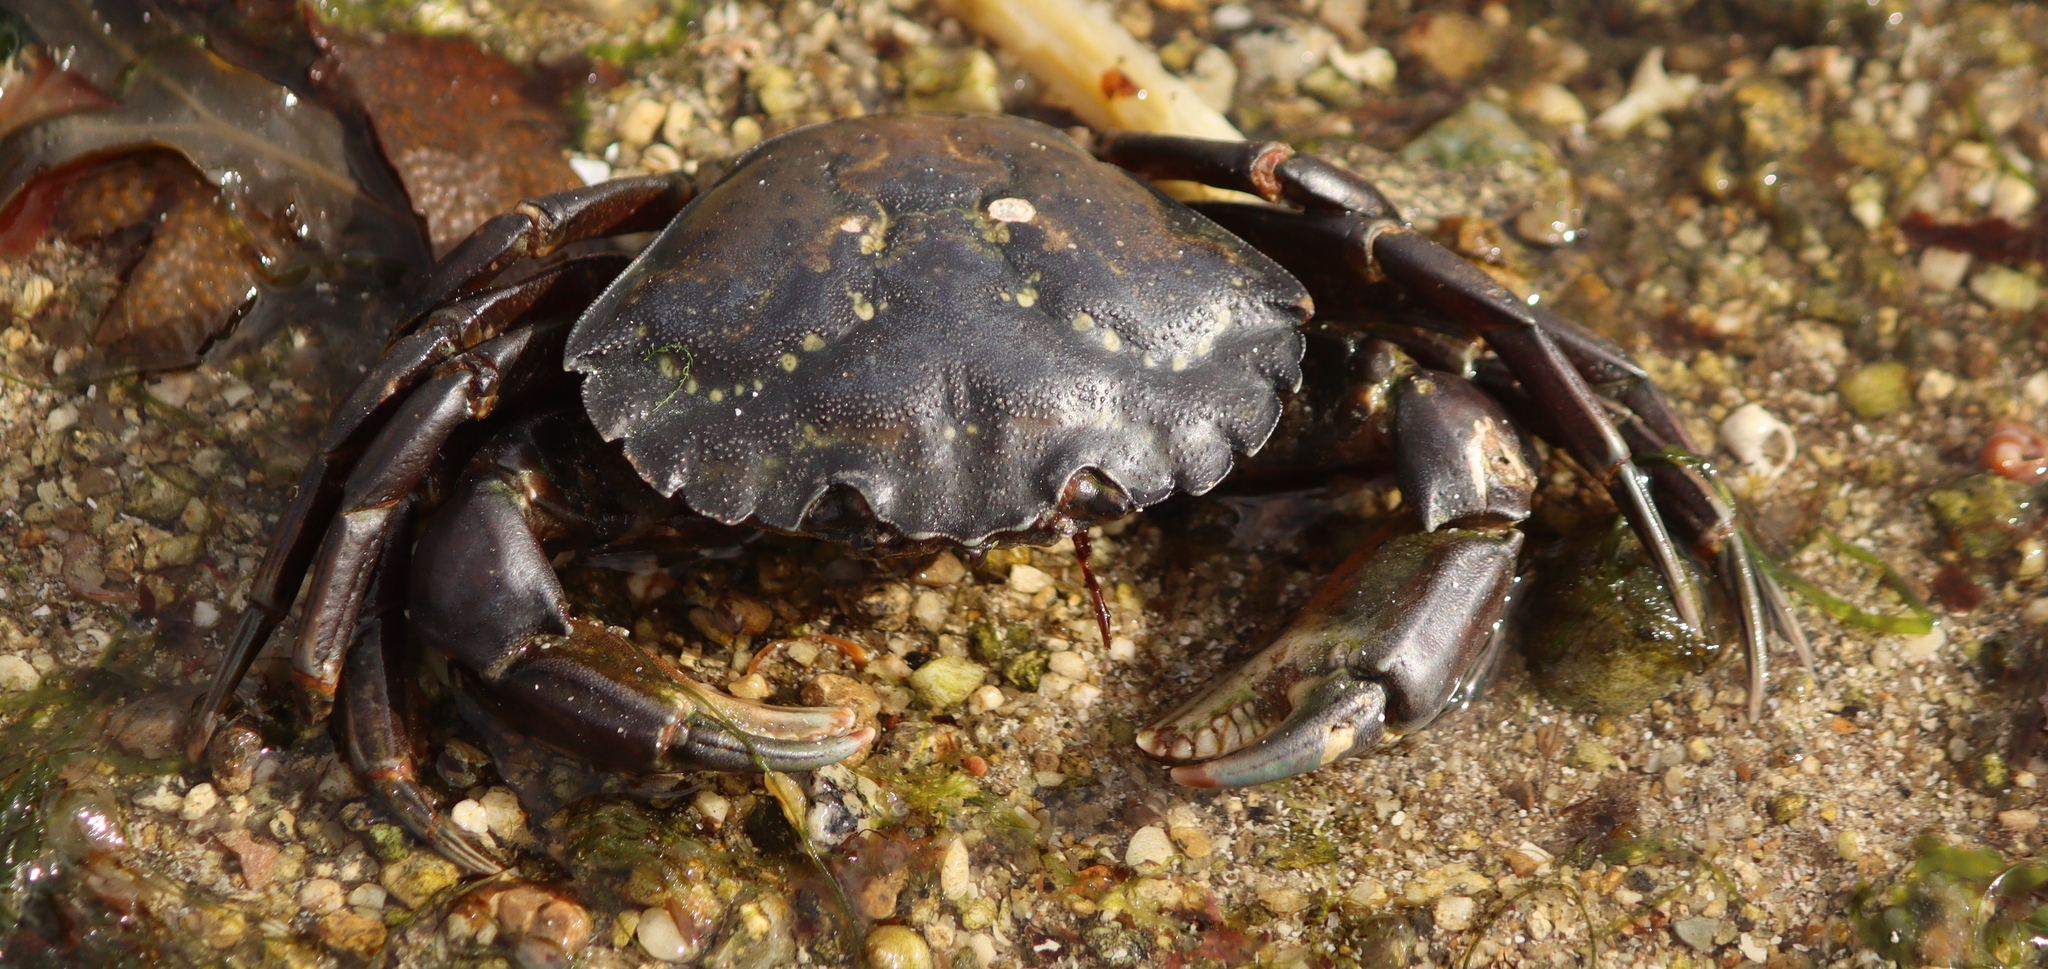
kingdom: Animalia
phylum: Arthropoda
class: Malacostraca
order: Decapoda
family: Carcinidae
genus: Carcinus
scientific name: Carcinus maenas
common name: European green crab
